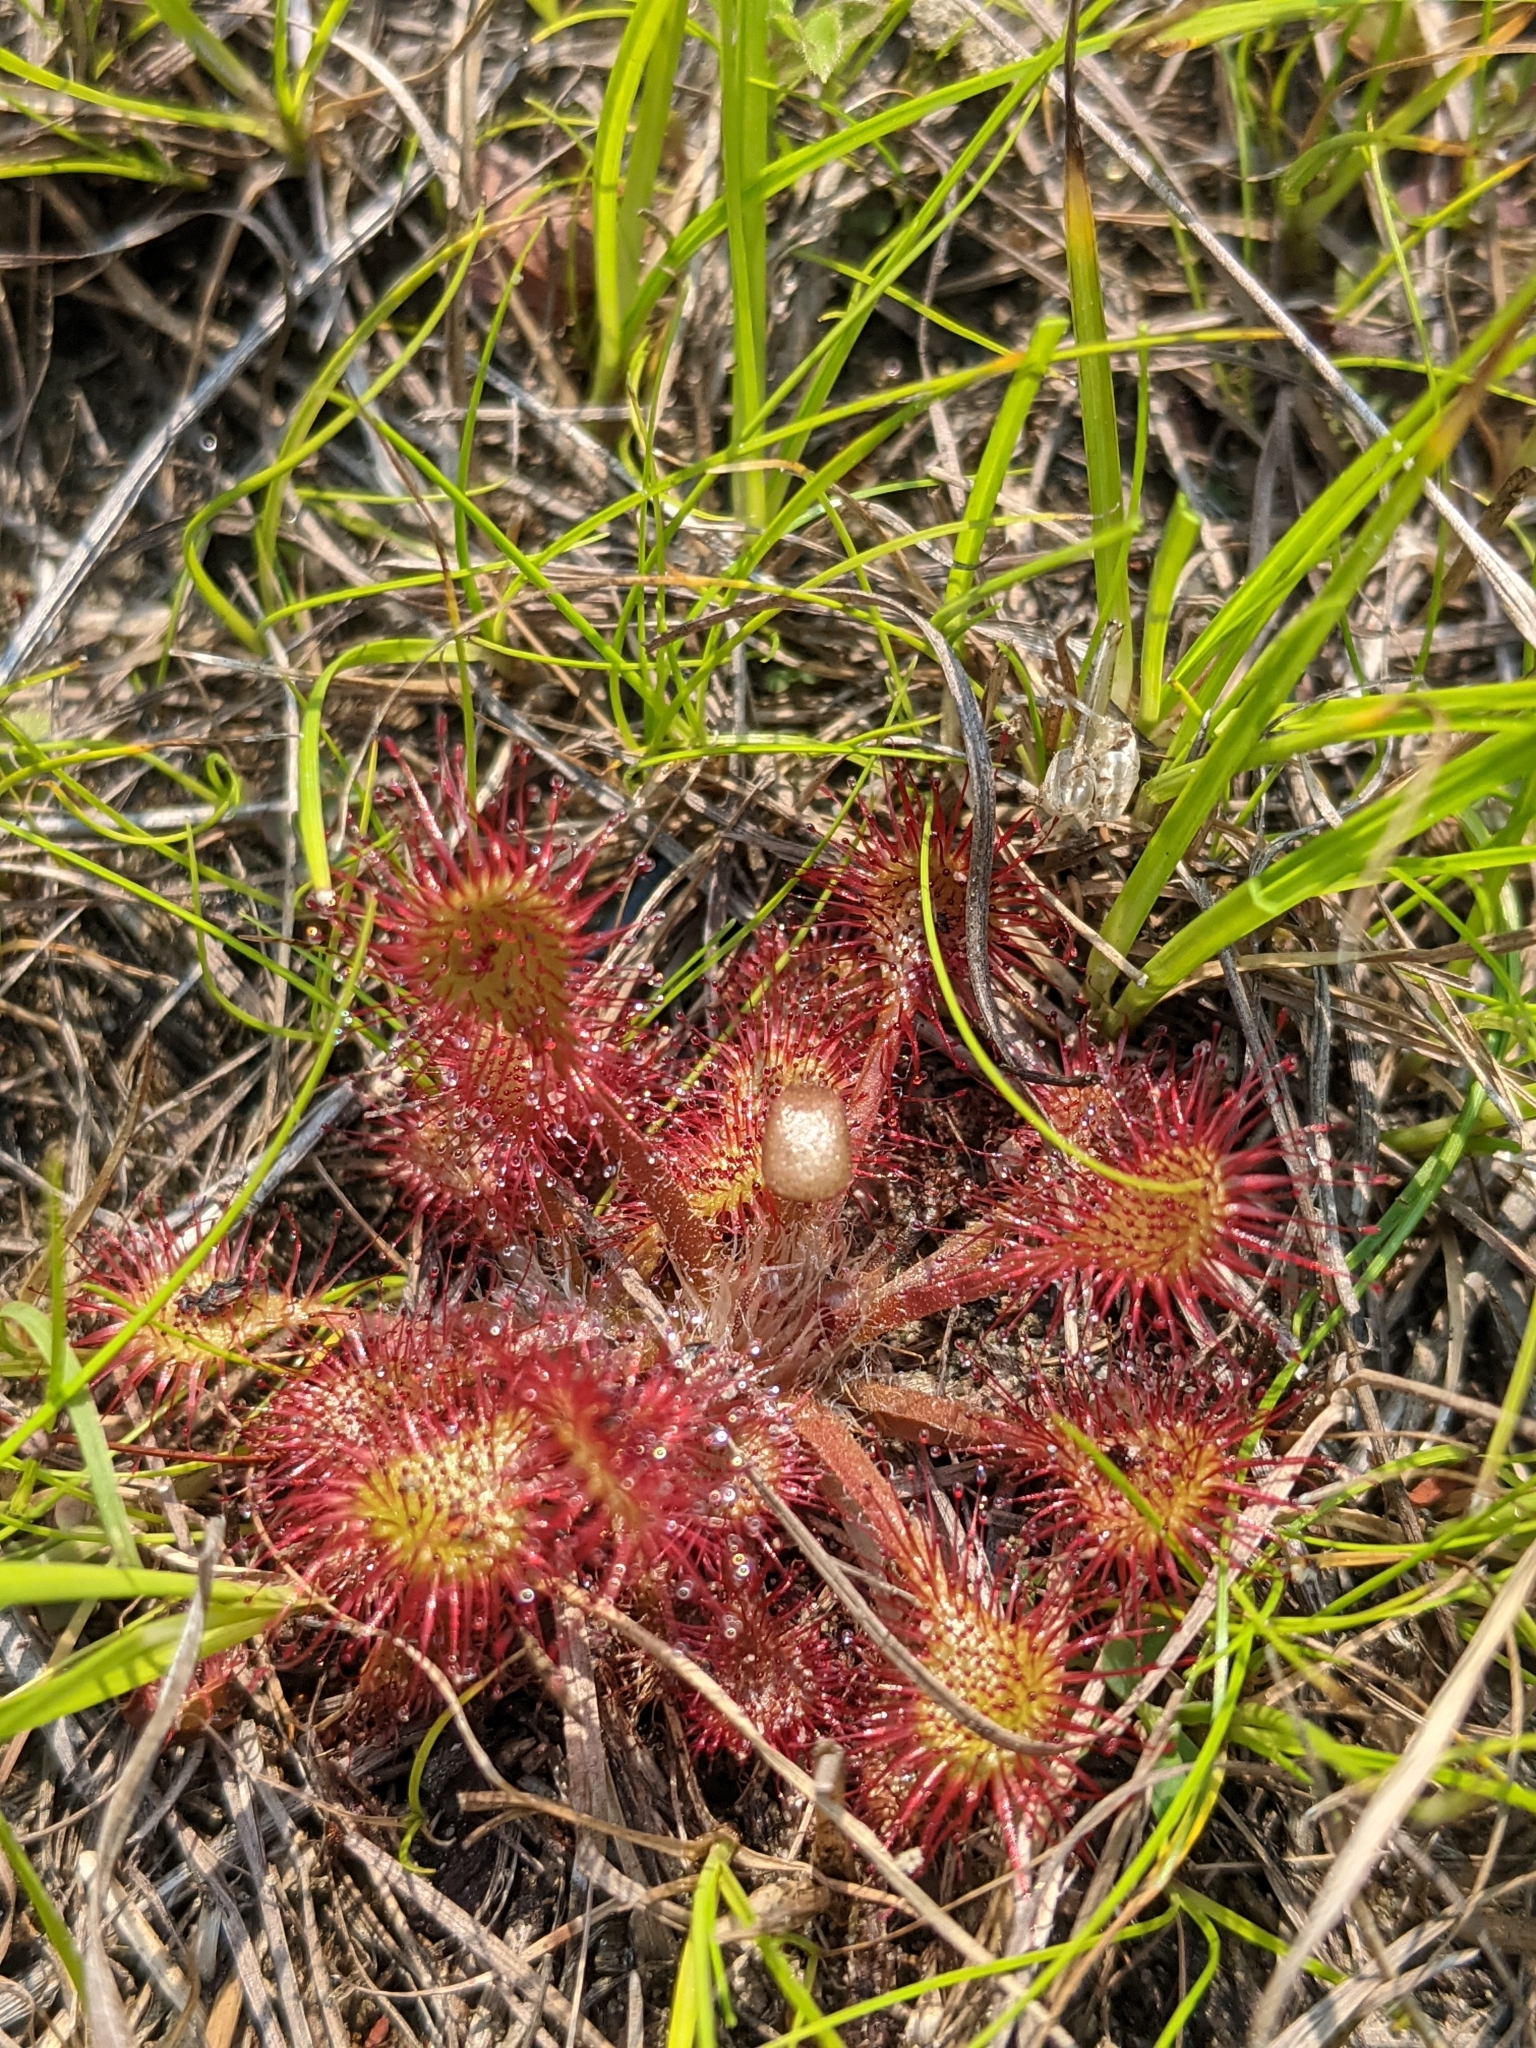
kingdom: Plantae
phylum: Tracheophyta
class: Magnoliopsida
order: Caryophyllales
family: Droseraceae
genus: Drosera
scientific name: Drosera rotundifolia
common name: Round-leaved sundew
